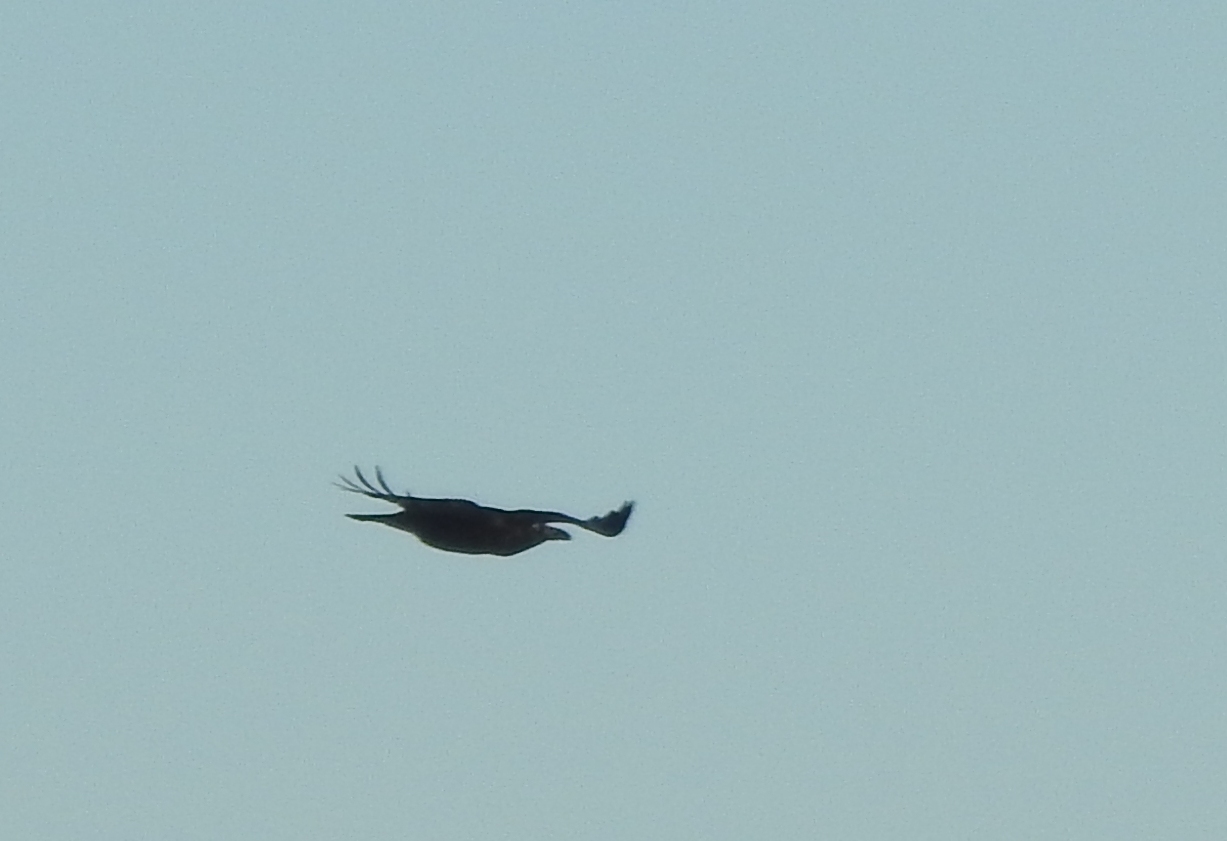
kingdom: Animalia
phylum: Chordata
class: Aves
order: Passeriformes
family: Corvidae
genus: Corvus
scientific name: Corvus corax
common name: Common raven
